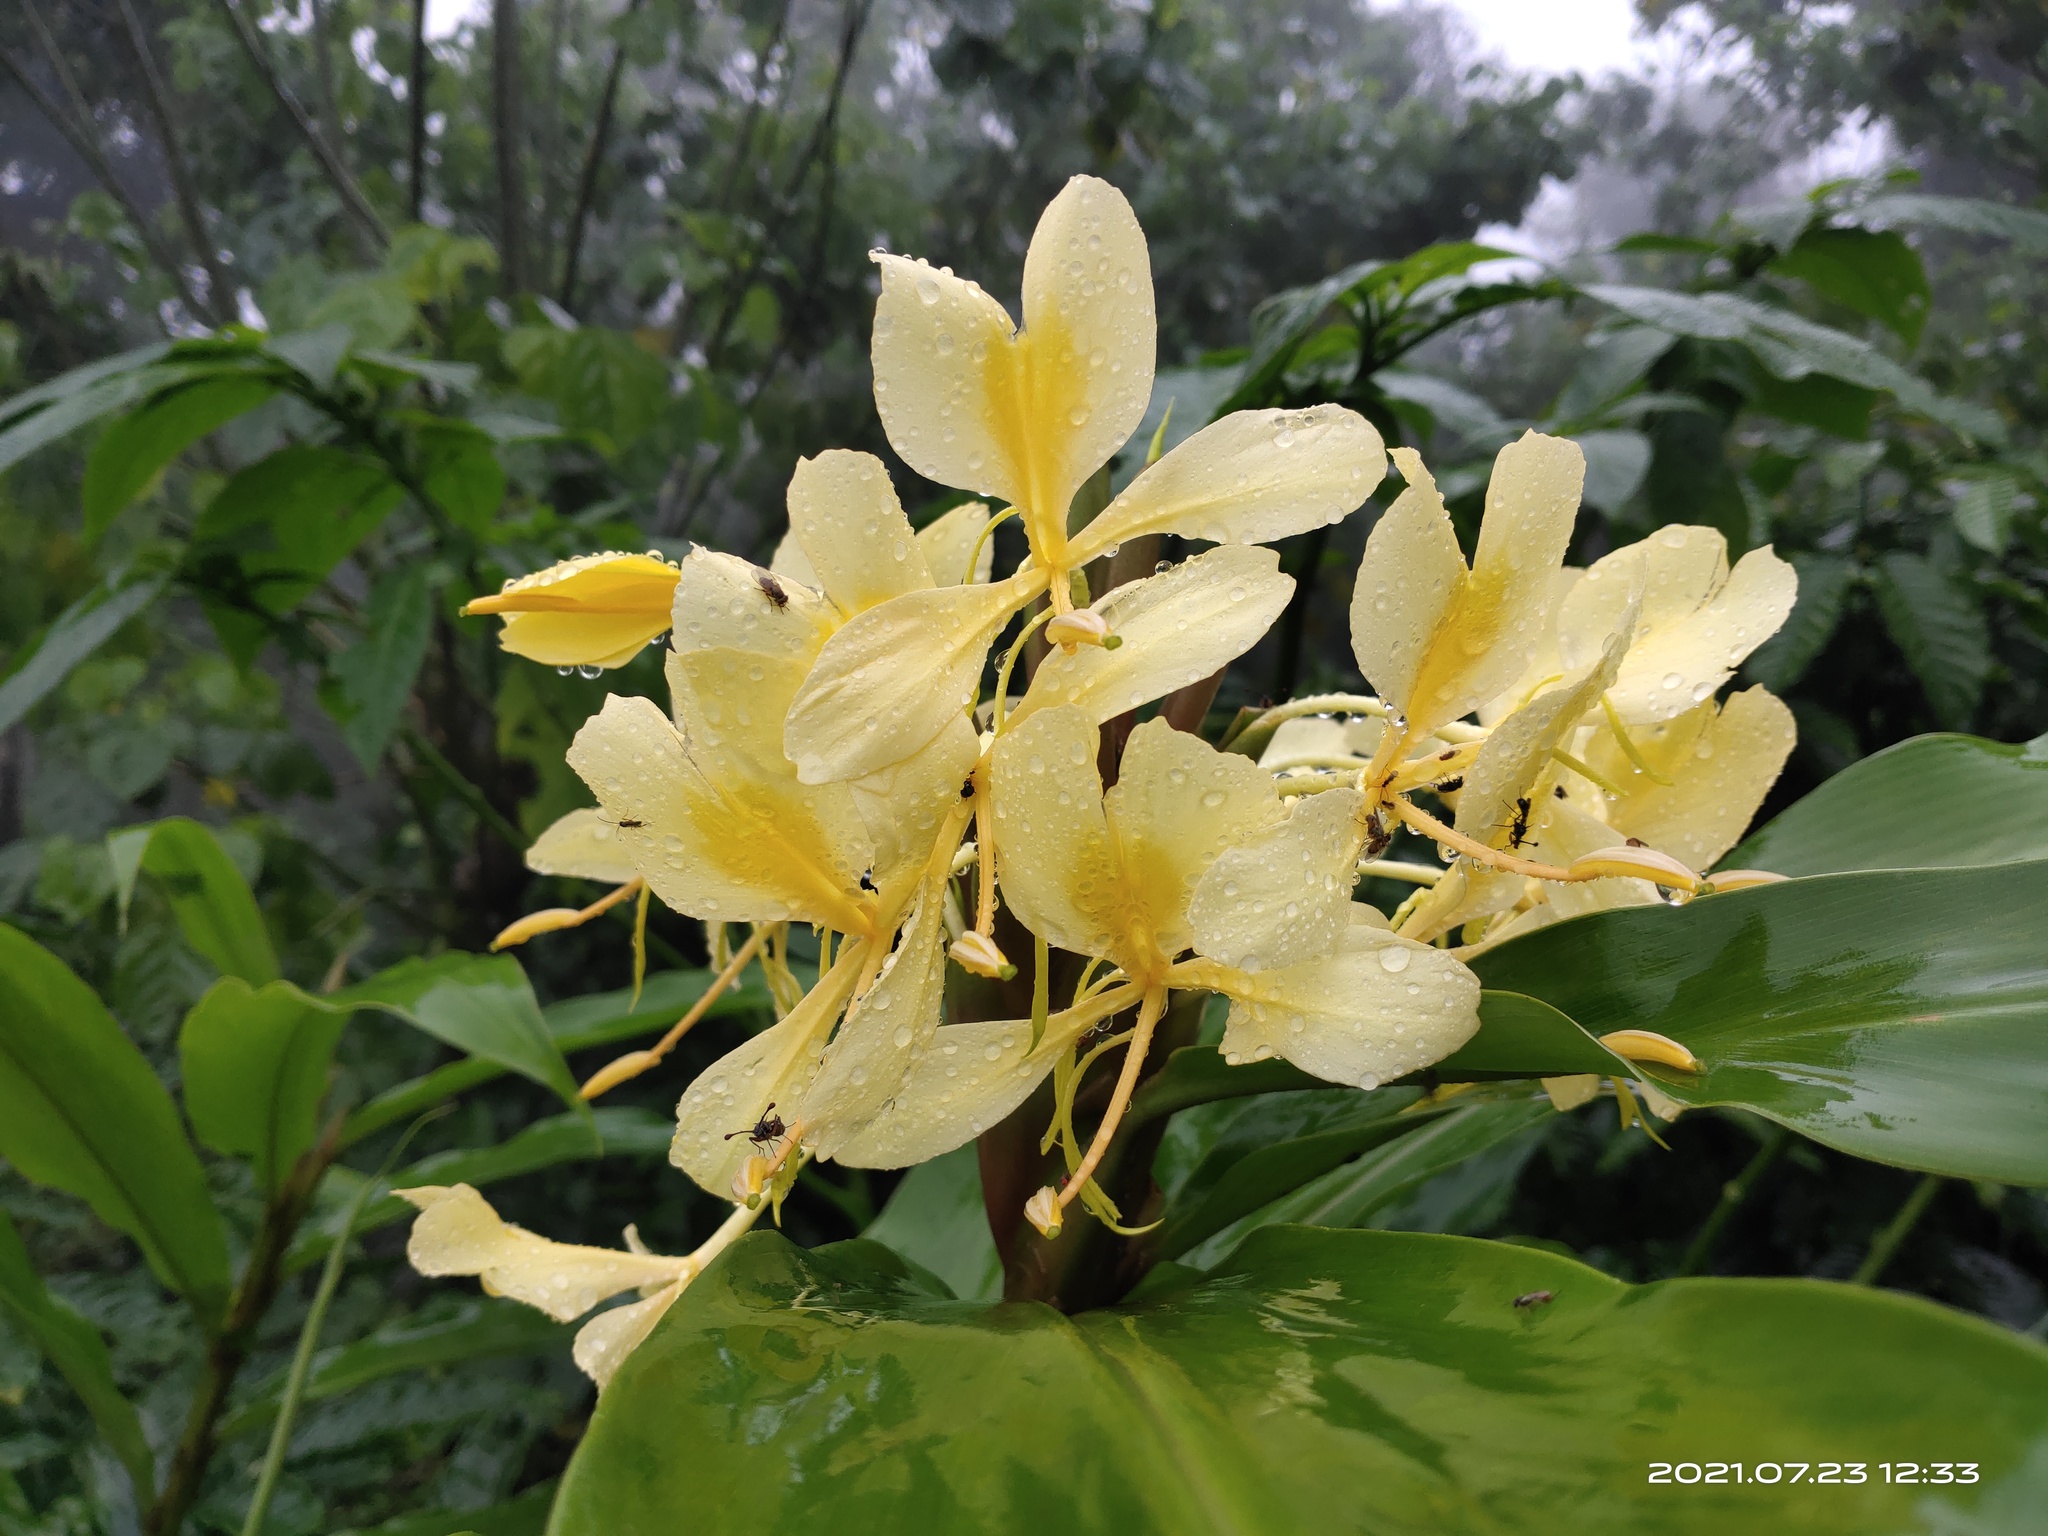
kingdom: Plantae
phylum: Tracheophyta
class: Liliopsida
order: Zingiberales
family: Zingiberaceae
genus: Hedychium
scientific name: Hedychium flavescens
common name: Yellow ginger
